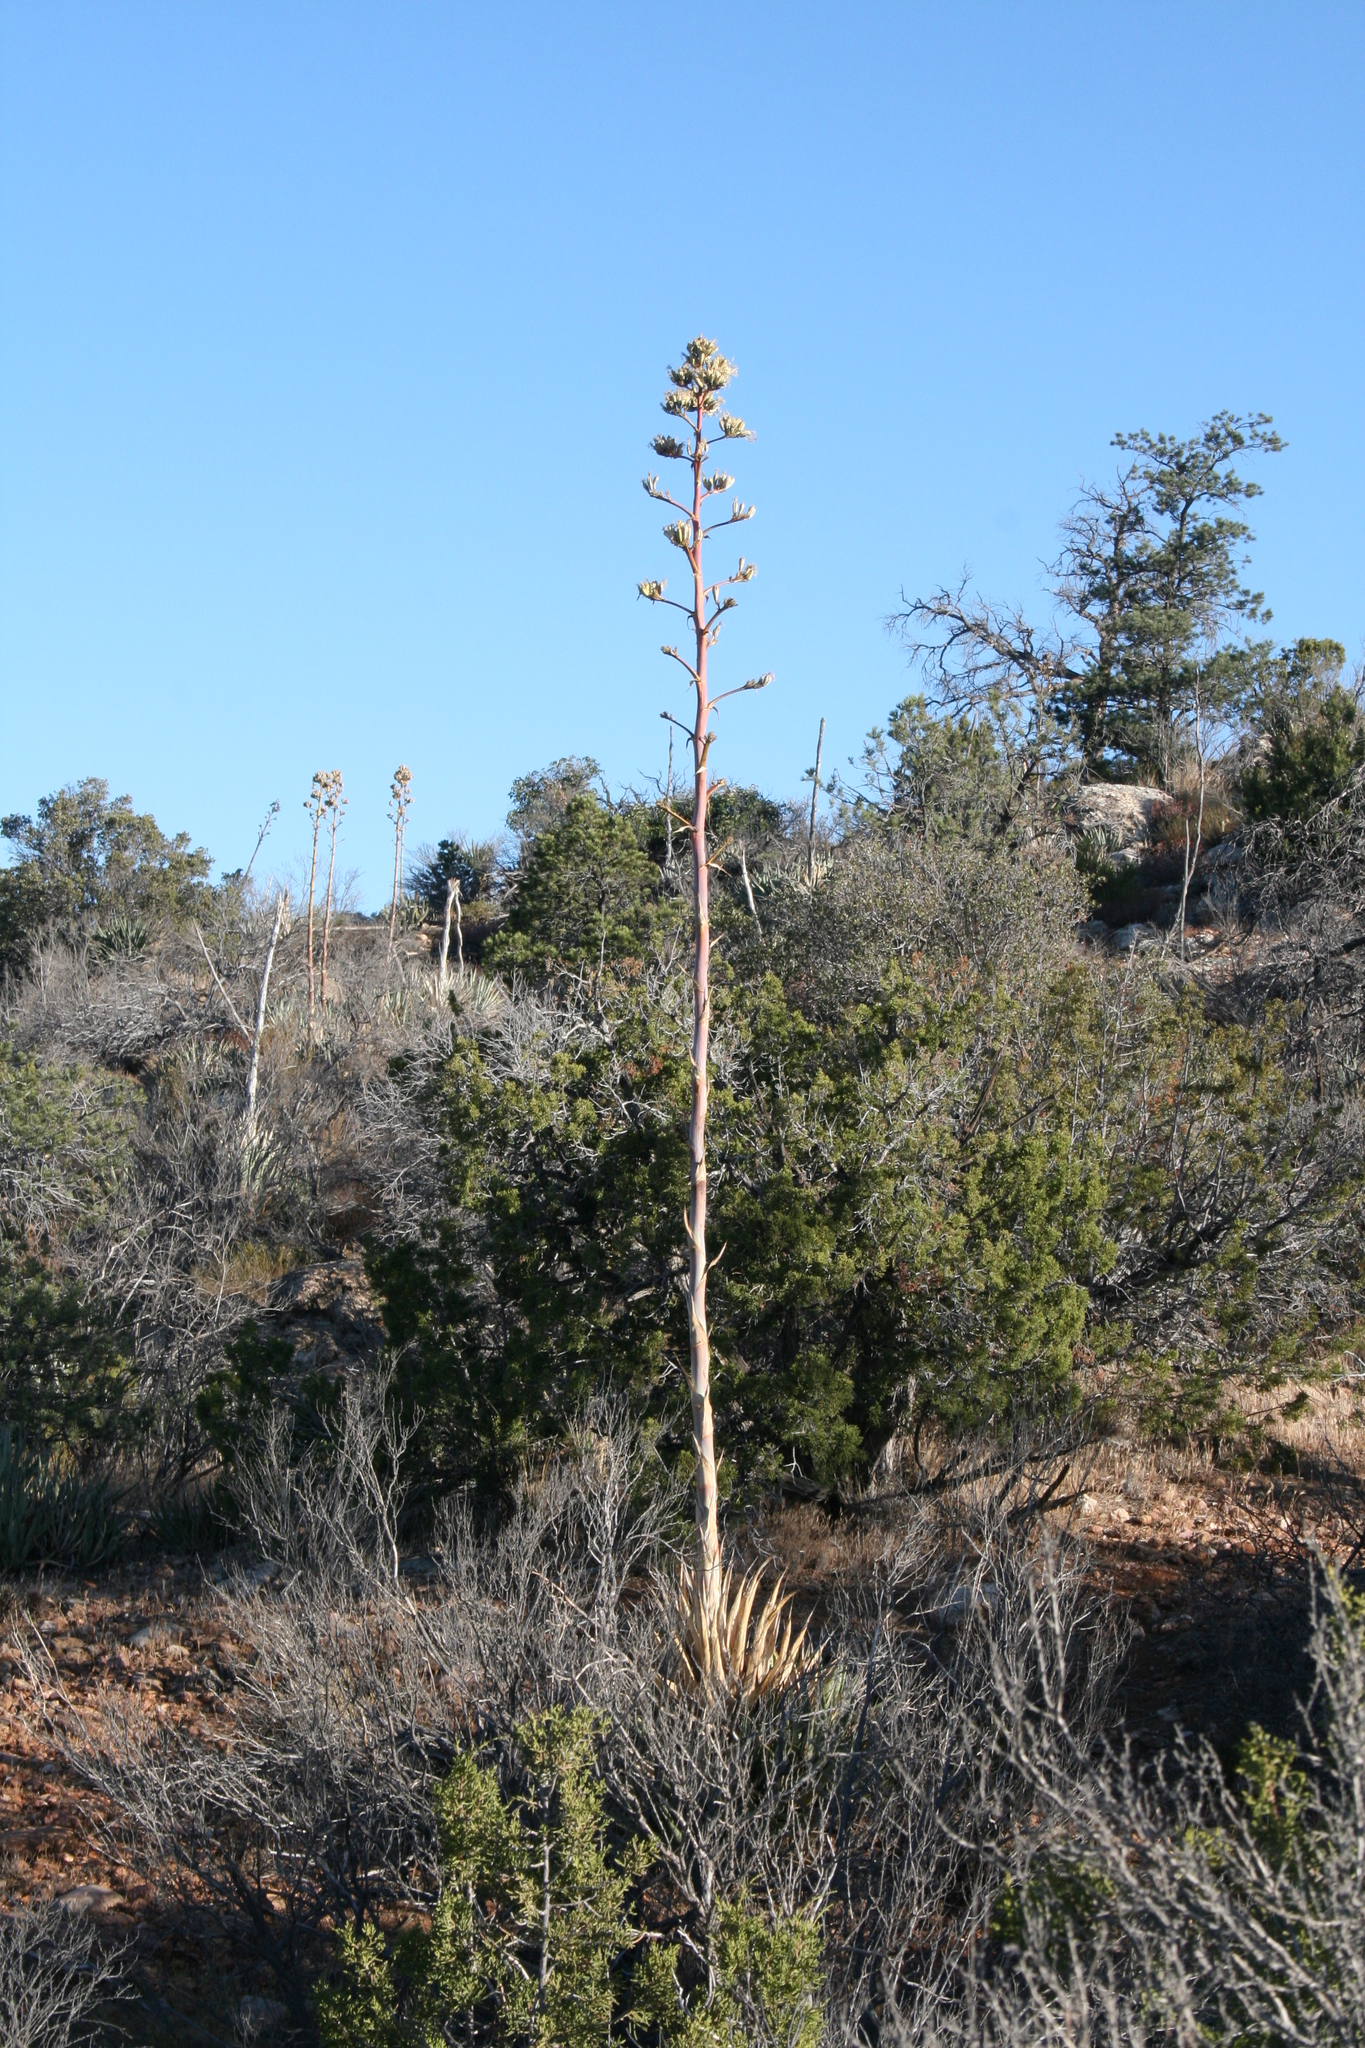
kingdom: Plantae
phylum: Tracheophyta
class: Liliopsida
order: Asparagales
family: Asparagaceae
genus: Agave
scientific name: Agave deserti
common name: Desert agave
